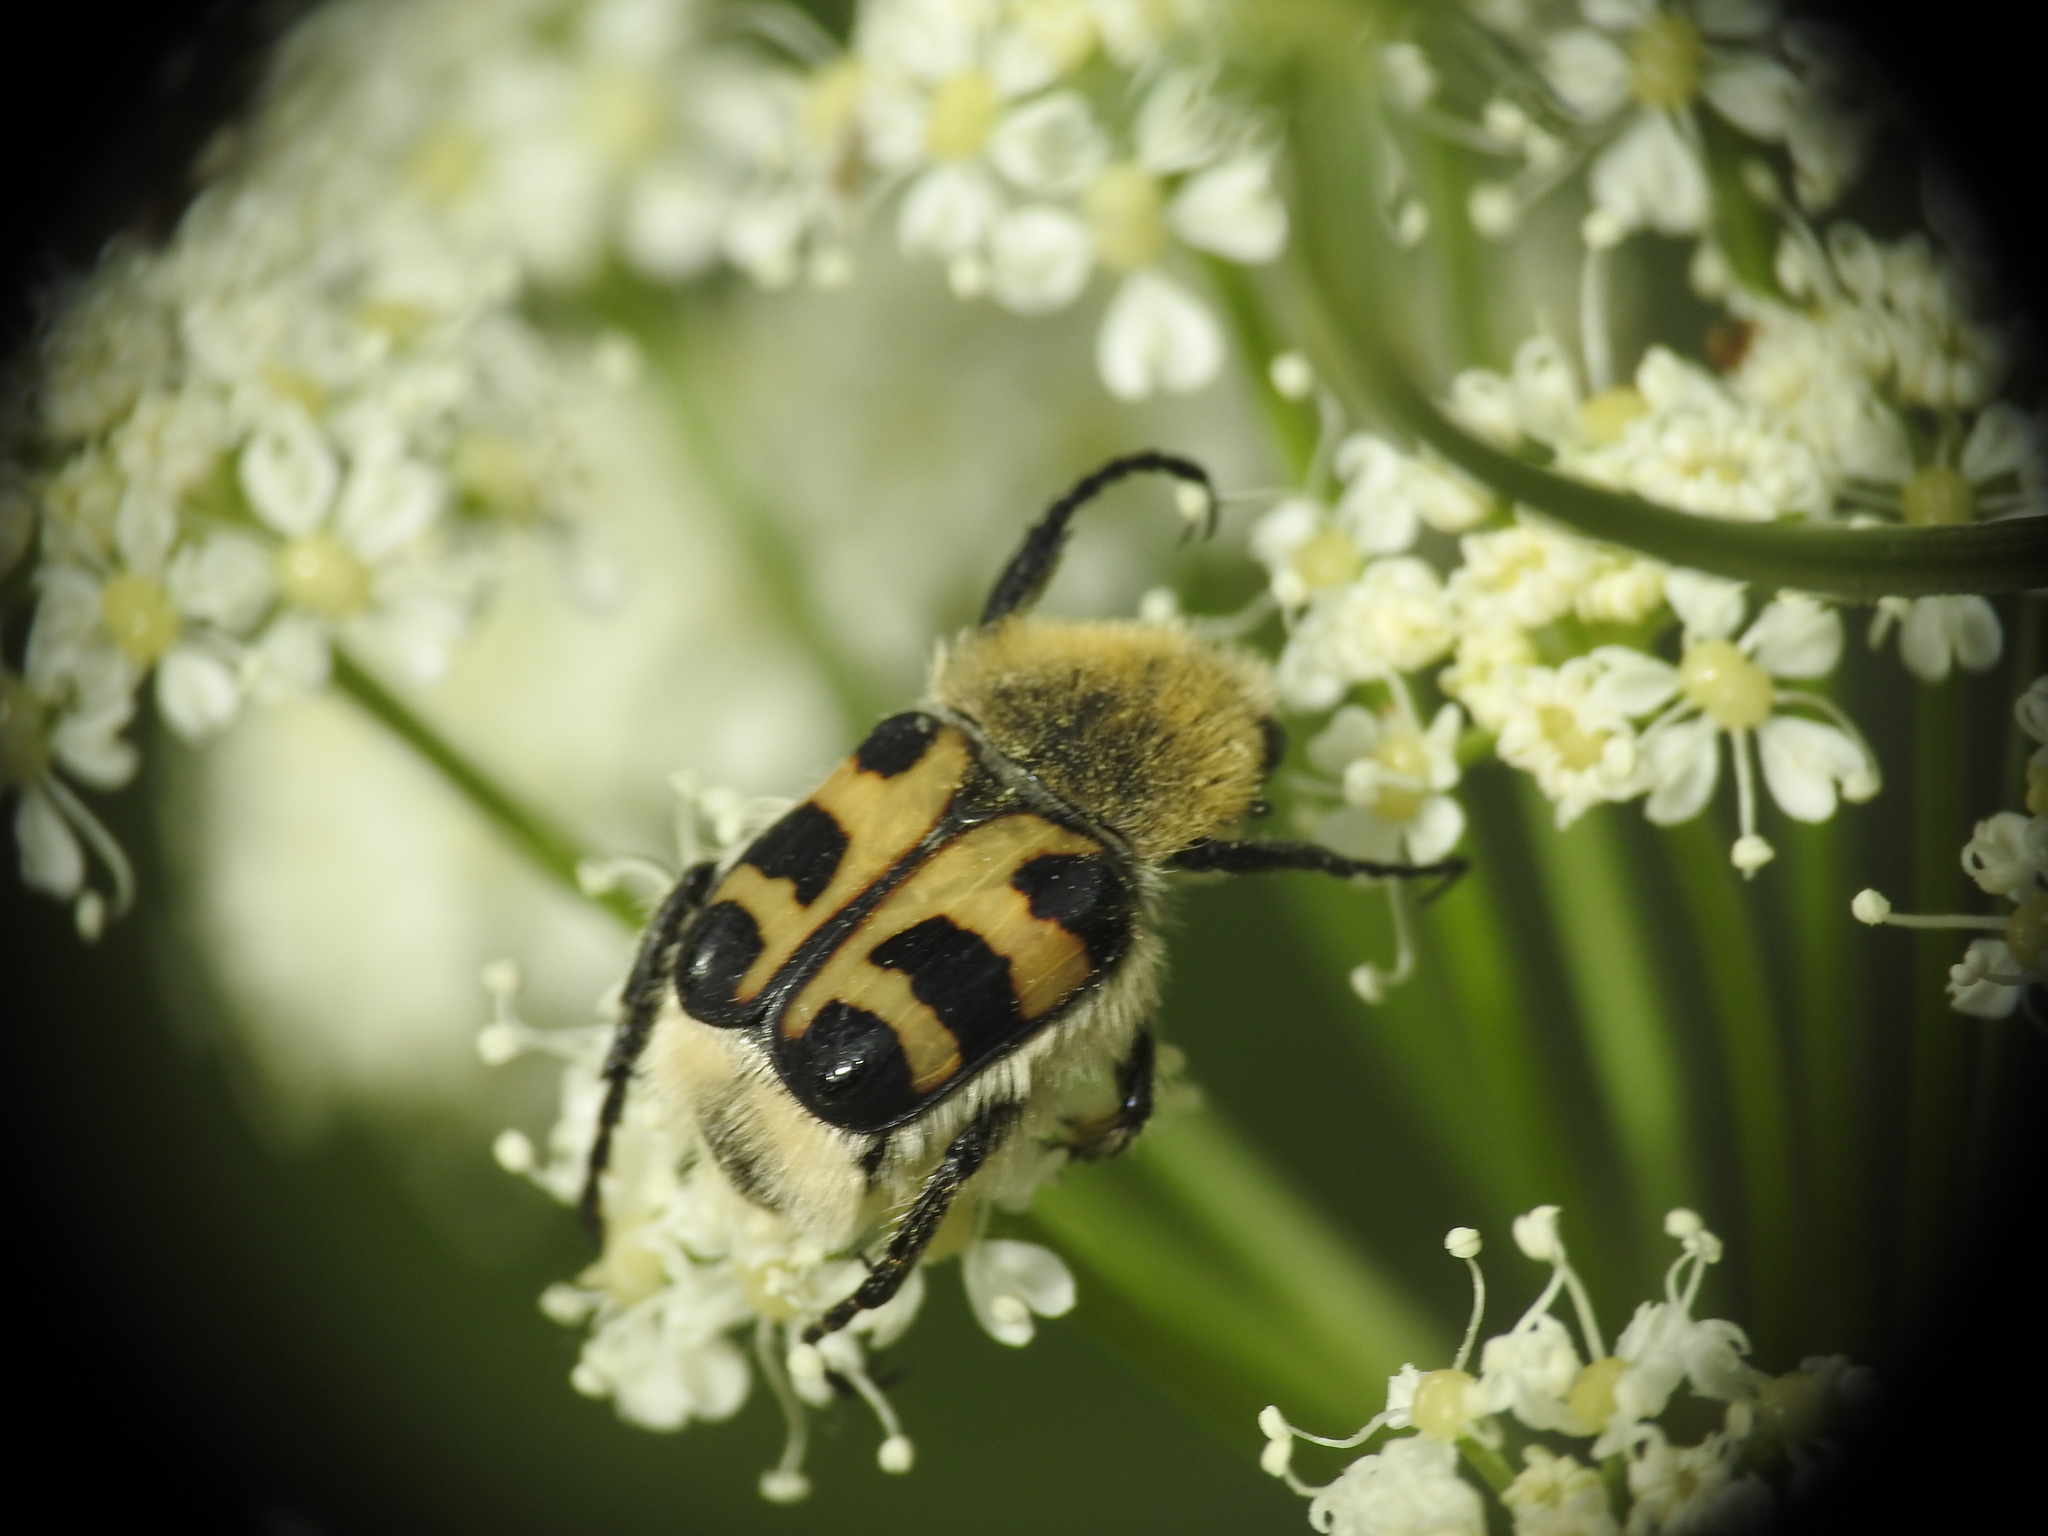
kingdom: Animalia
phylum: Arthropoda
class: Insecta
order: Coleoptera
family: Scarabaeidae
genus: Trichius
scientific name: Trichius gallicus
